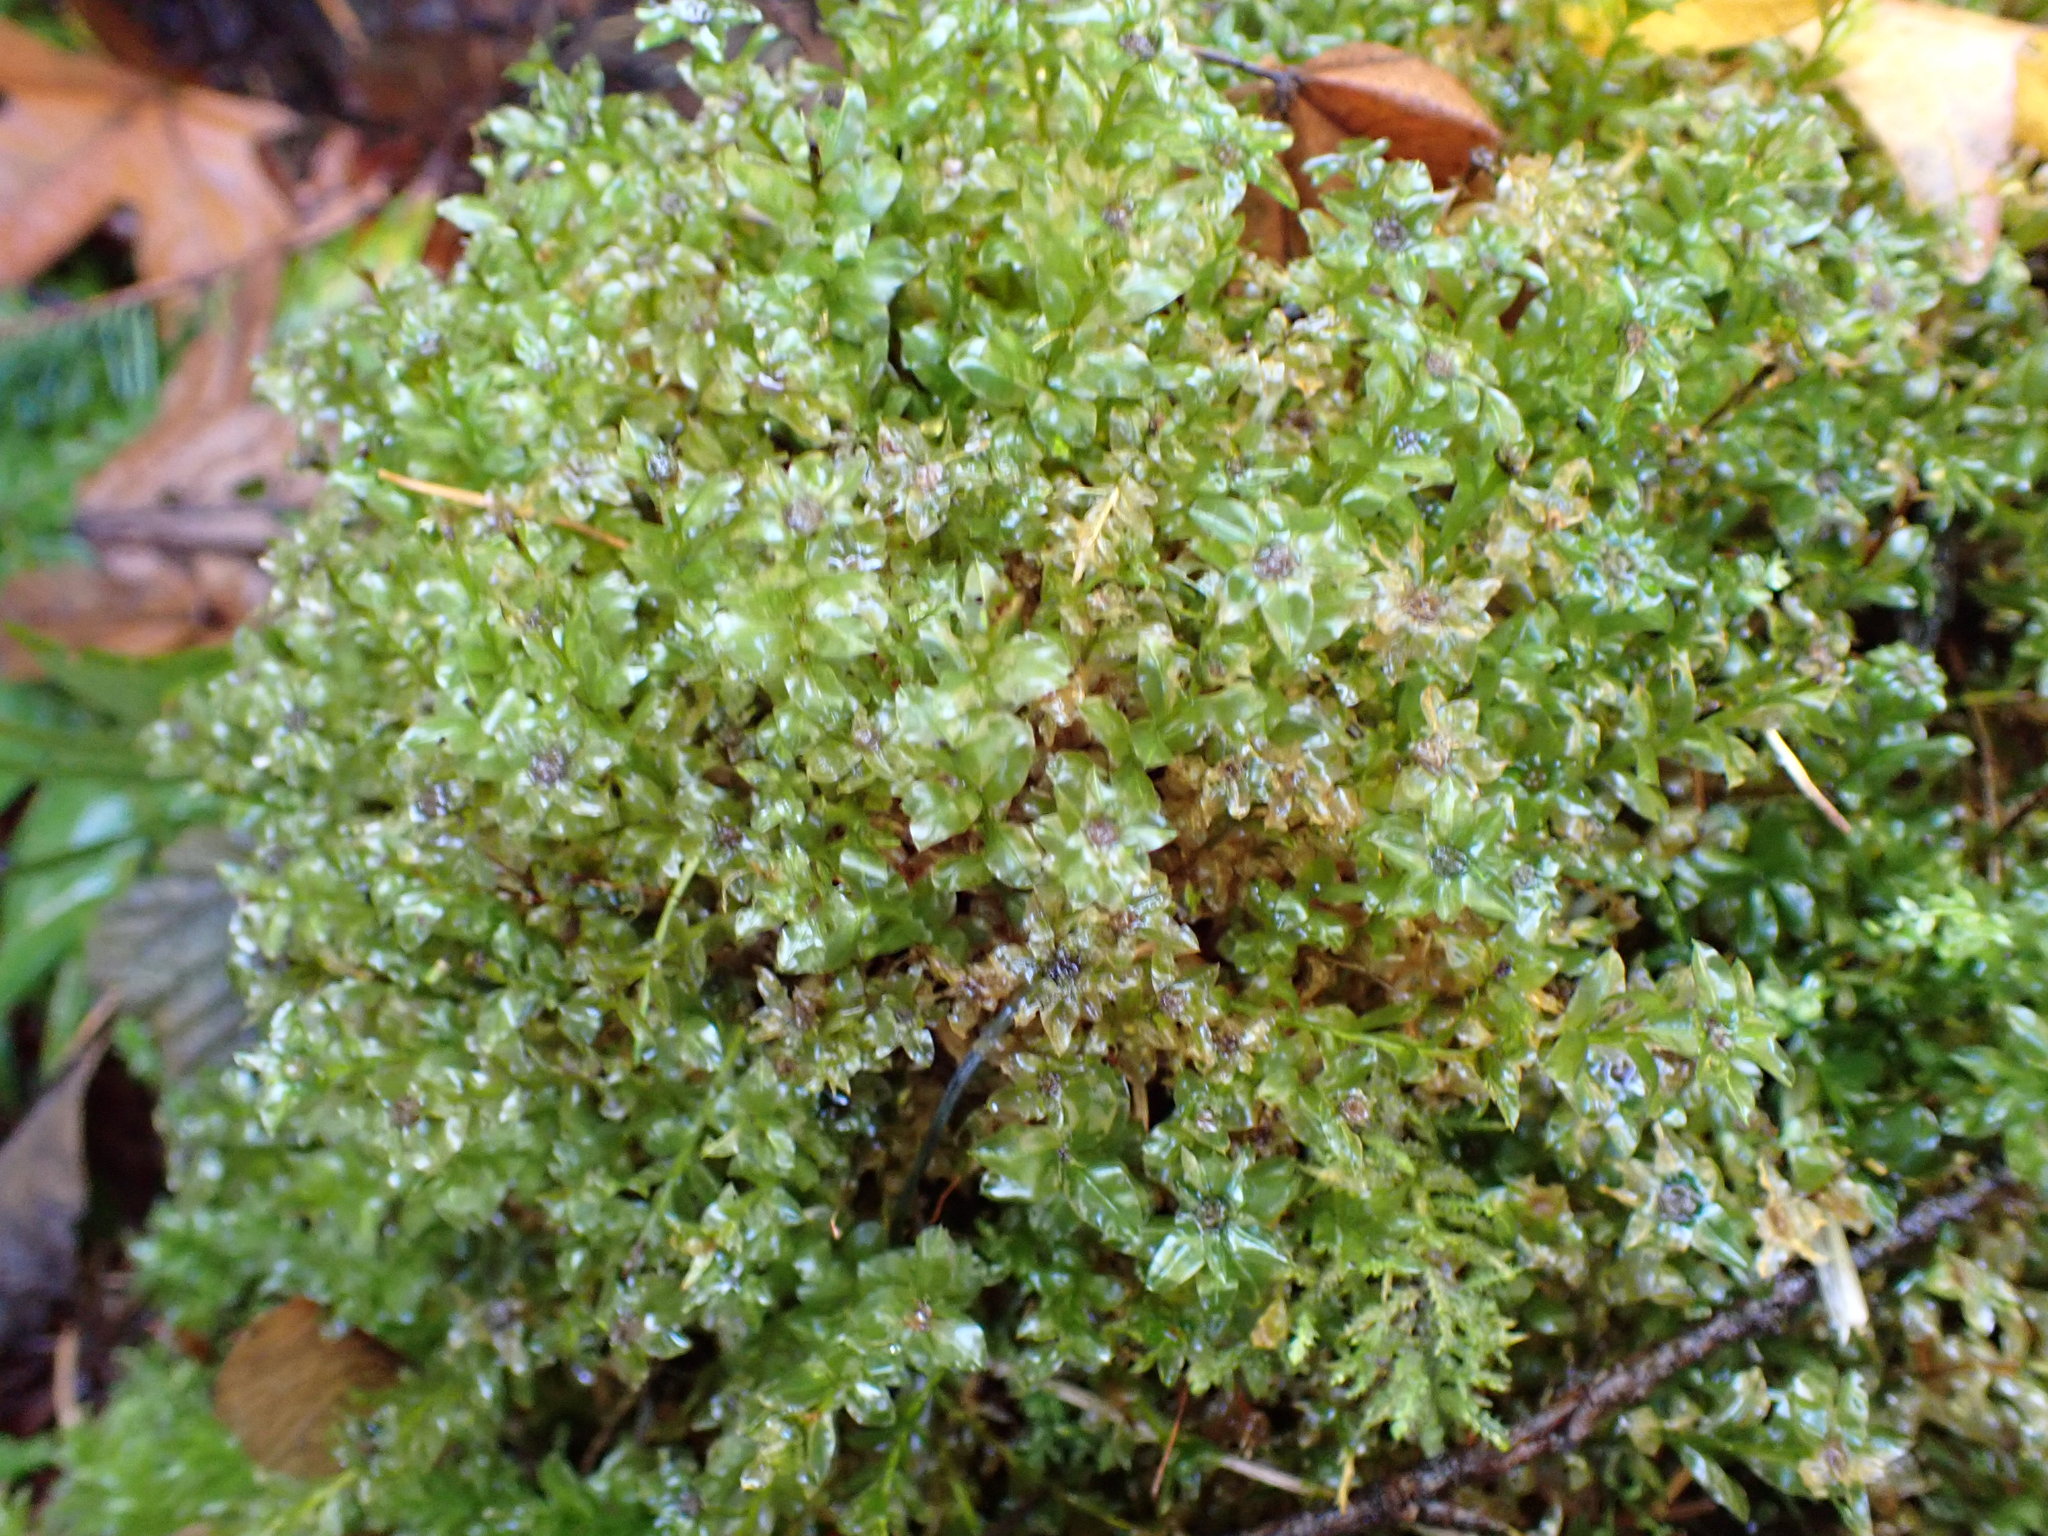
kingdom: Plantae
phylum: Bryophyta
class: Bryopsida
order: Bryales
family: Mniaceae
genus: Plagiomnium
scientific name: Plagiomnium insigne
